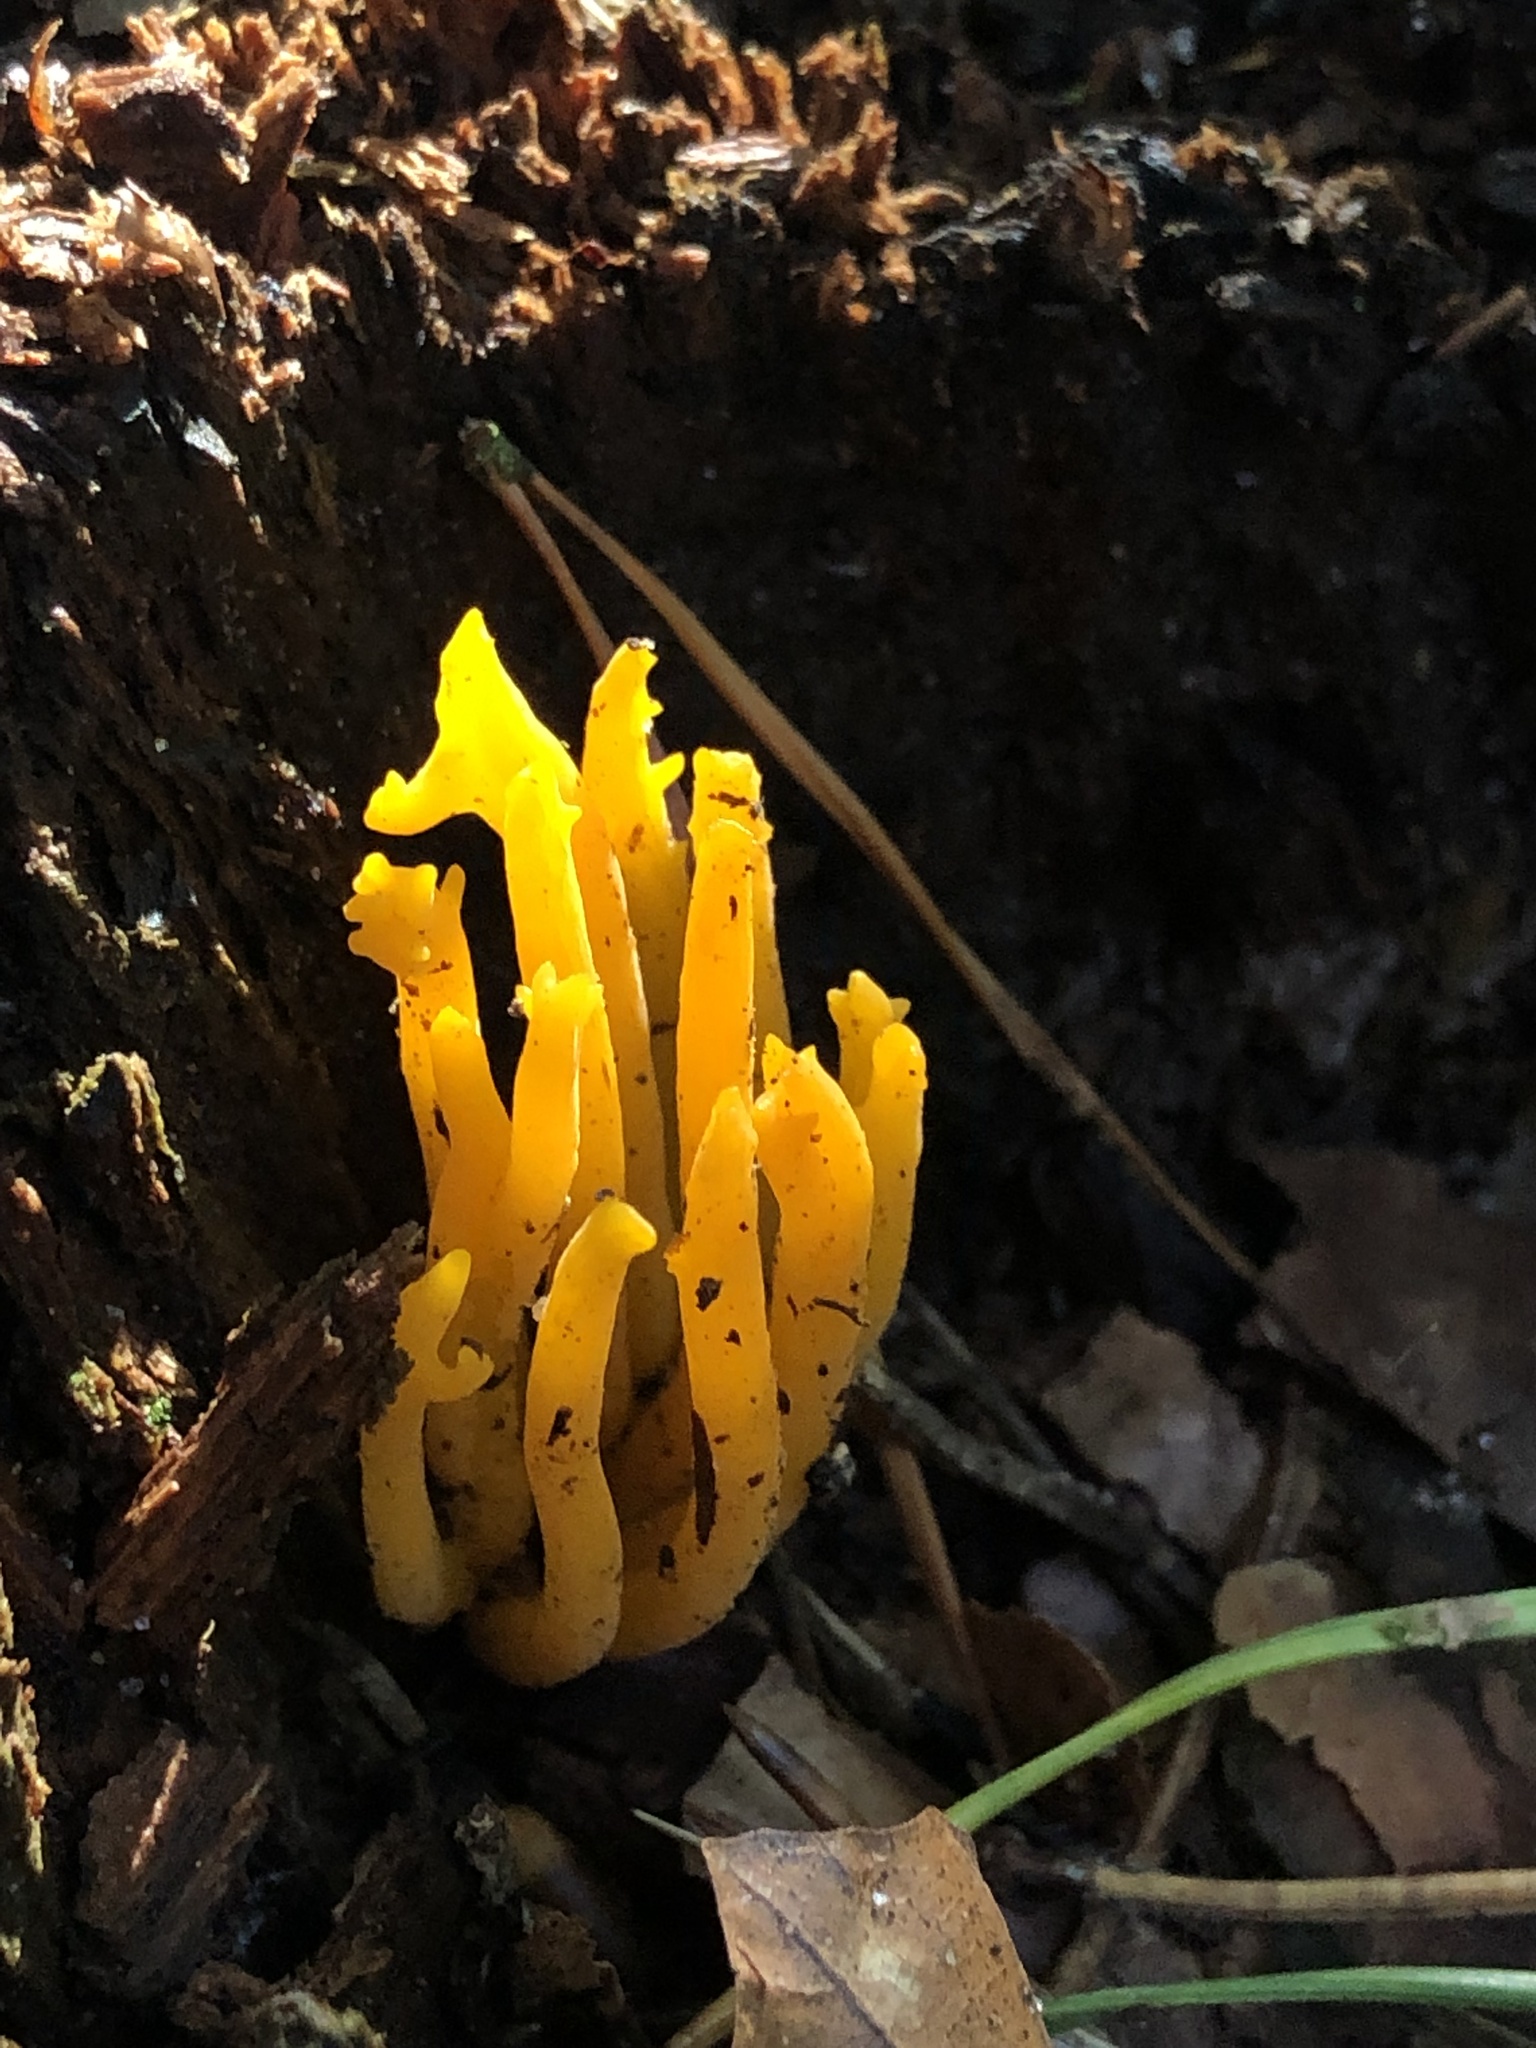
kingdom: Fungi
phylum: Basidiomycota
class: Dacrymycetes
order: Dacrymycetales
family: Dacrymycetaceae
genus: Calocera
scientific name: Calocera viscosa
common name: Yellow stagshorn
